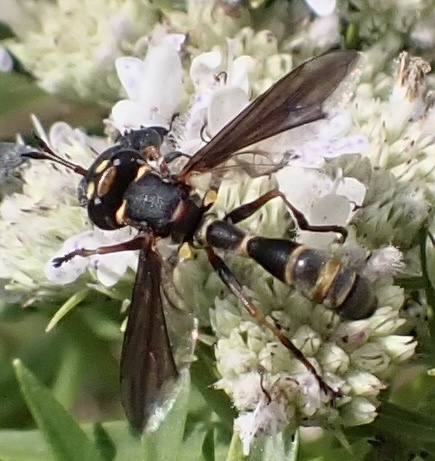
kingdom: Animalia
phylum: Arthropoda
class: Insecta
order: Diptera
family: Conopidae
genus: Physocephala
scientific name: Physocephala sagittaria
